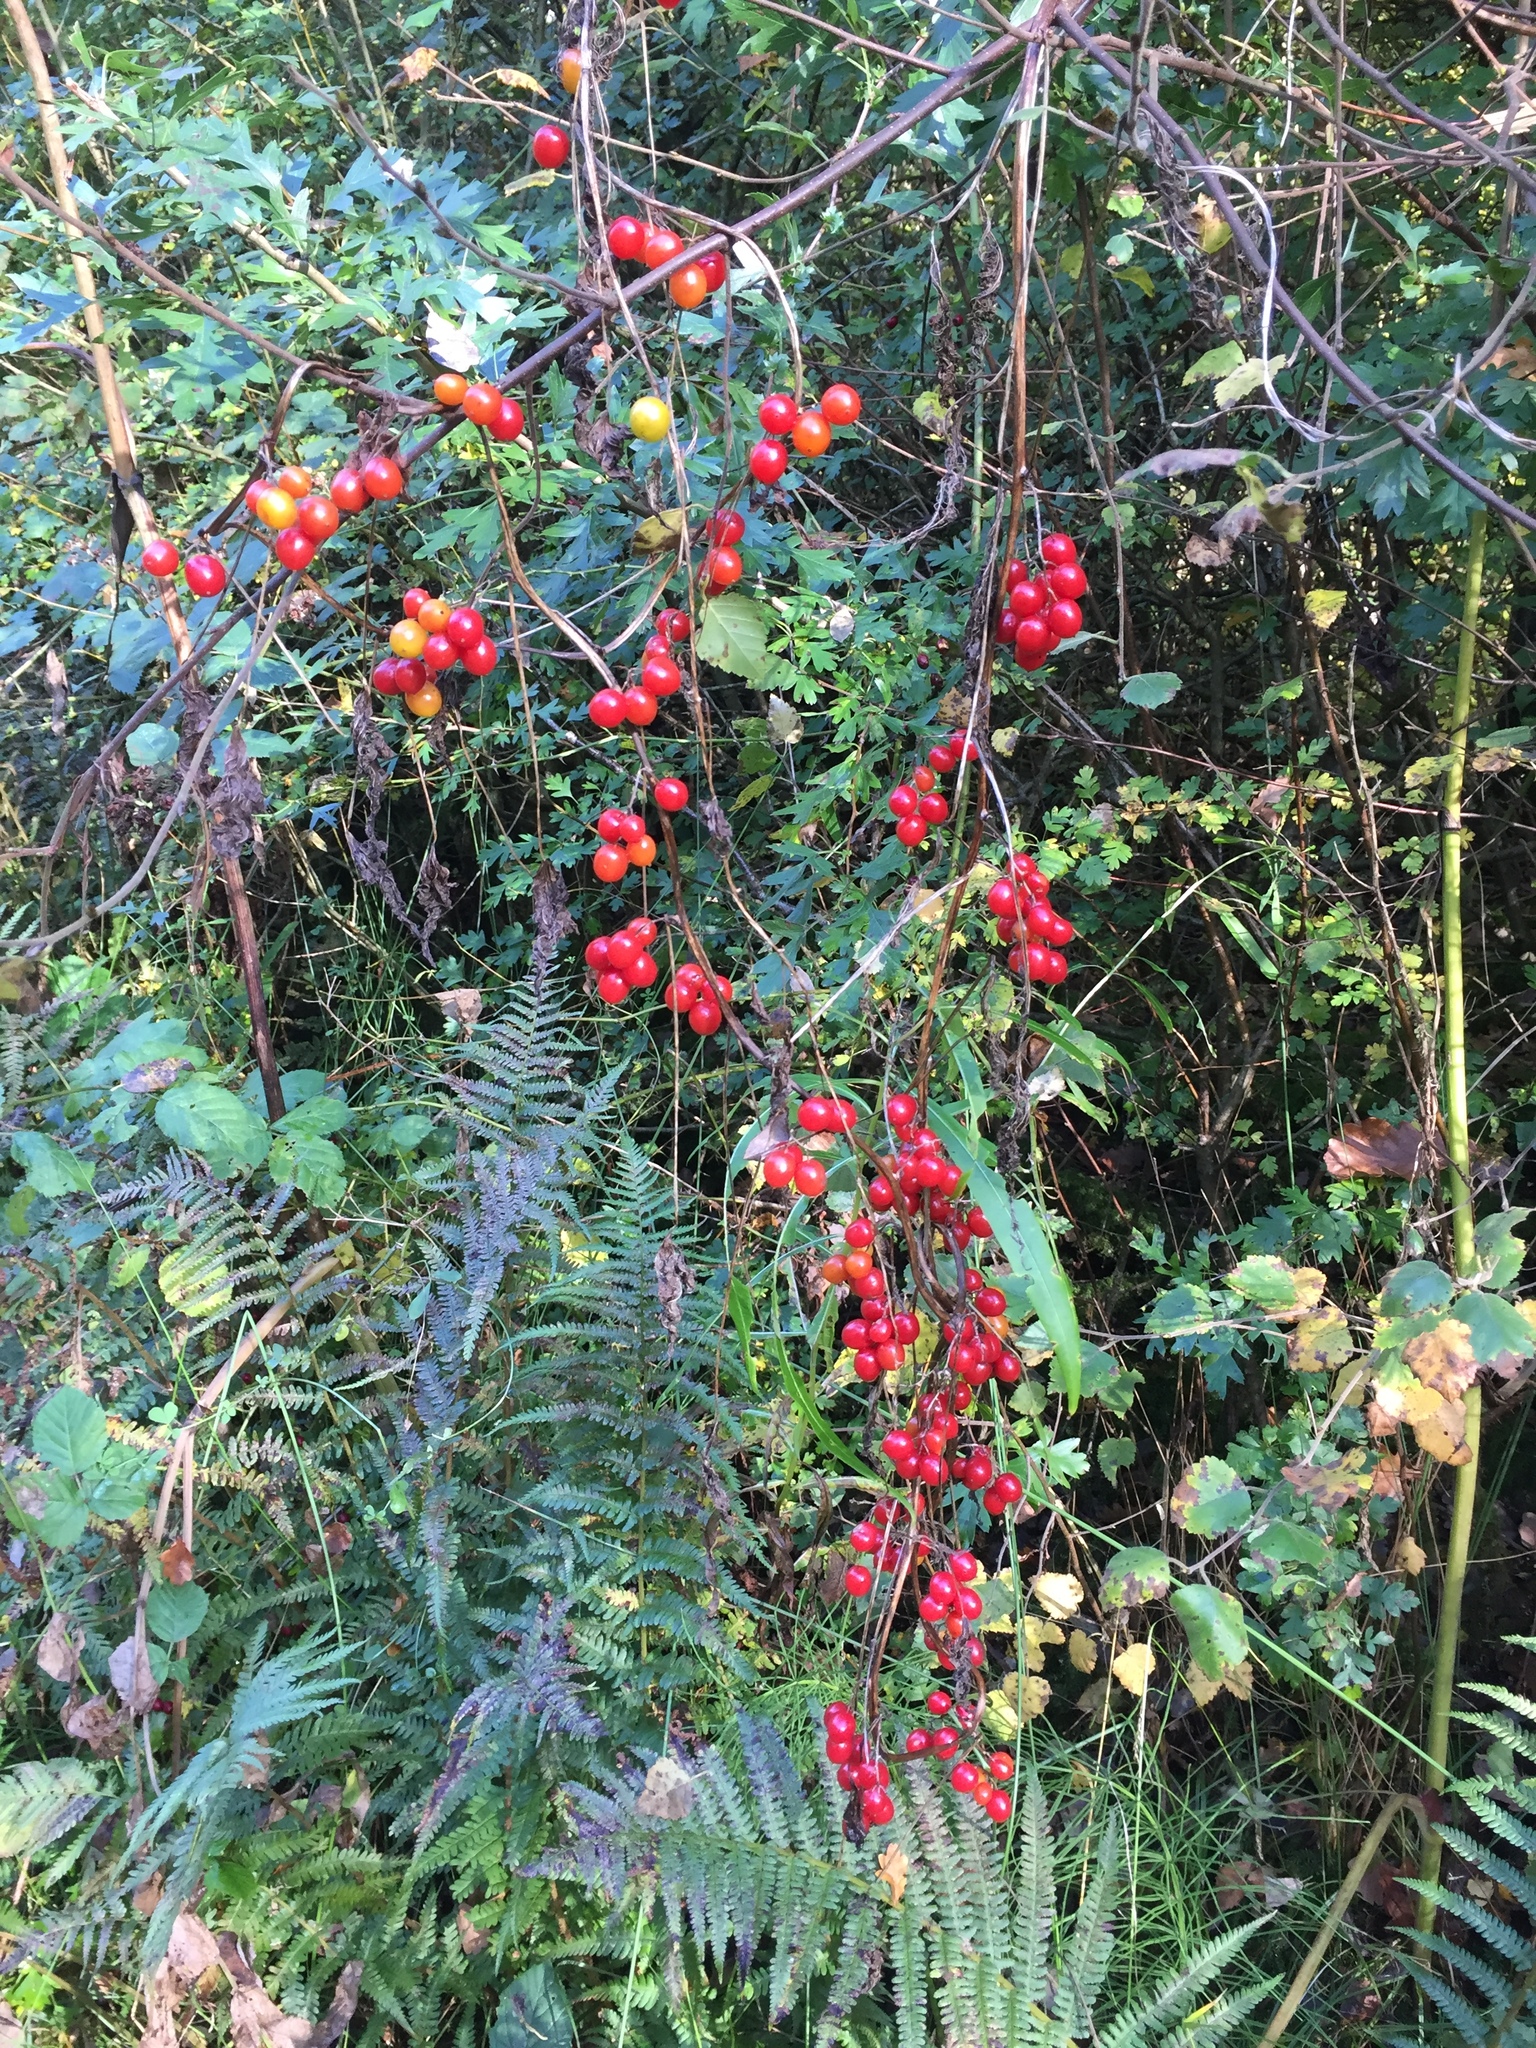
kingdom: Plantae
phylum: Tracheophyta
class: Liliopsida
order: Dioscoreales
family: Dioscoreaceae
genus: Dioscorea
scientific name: Dioscorea communis
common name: Black-bindweed
